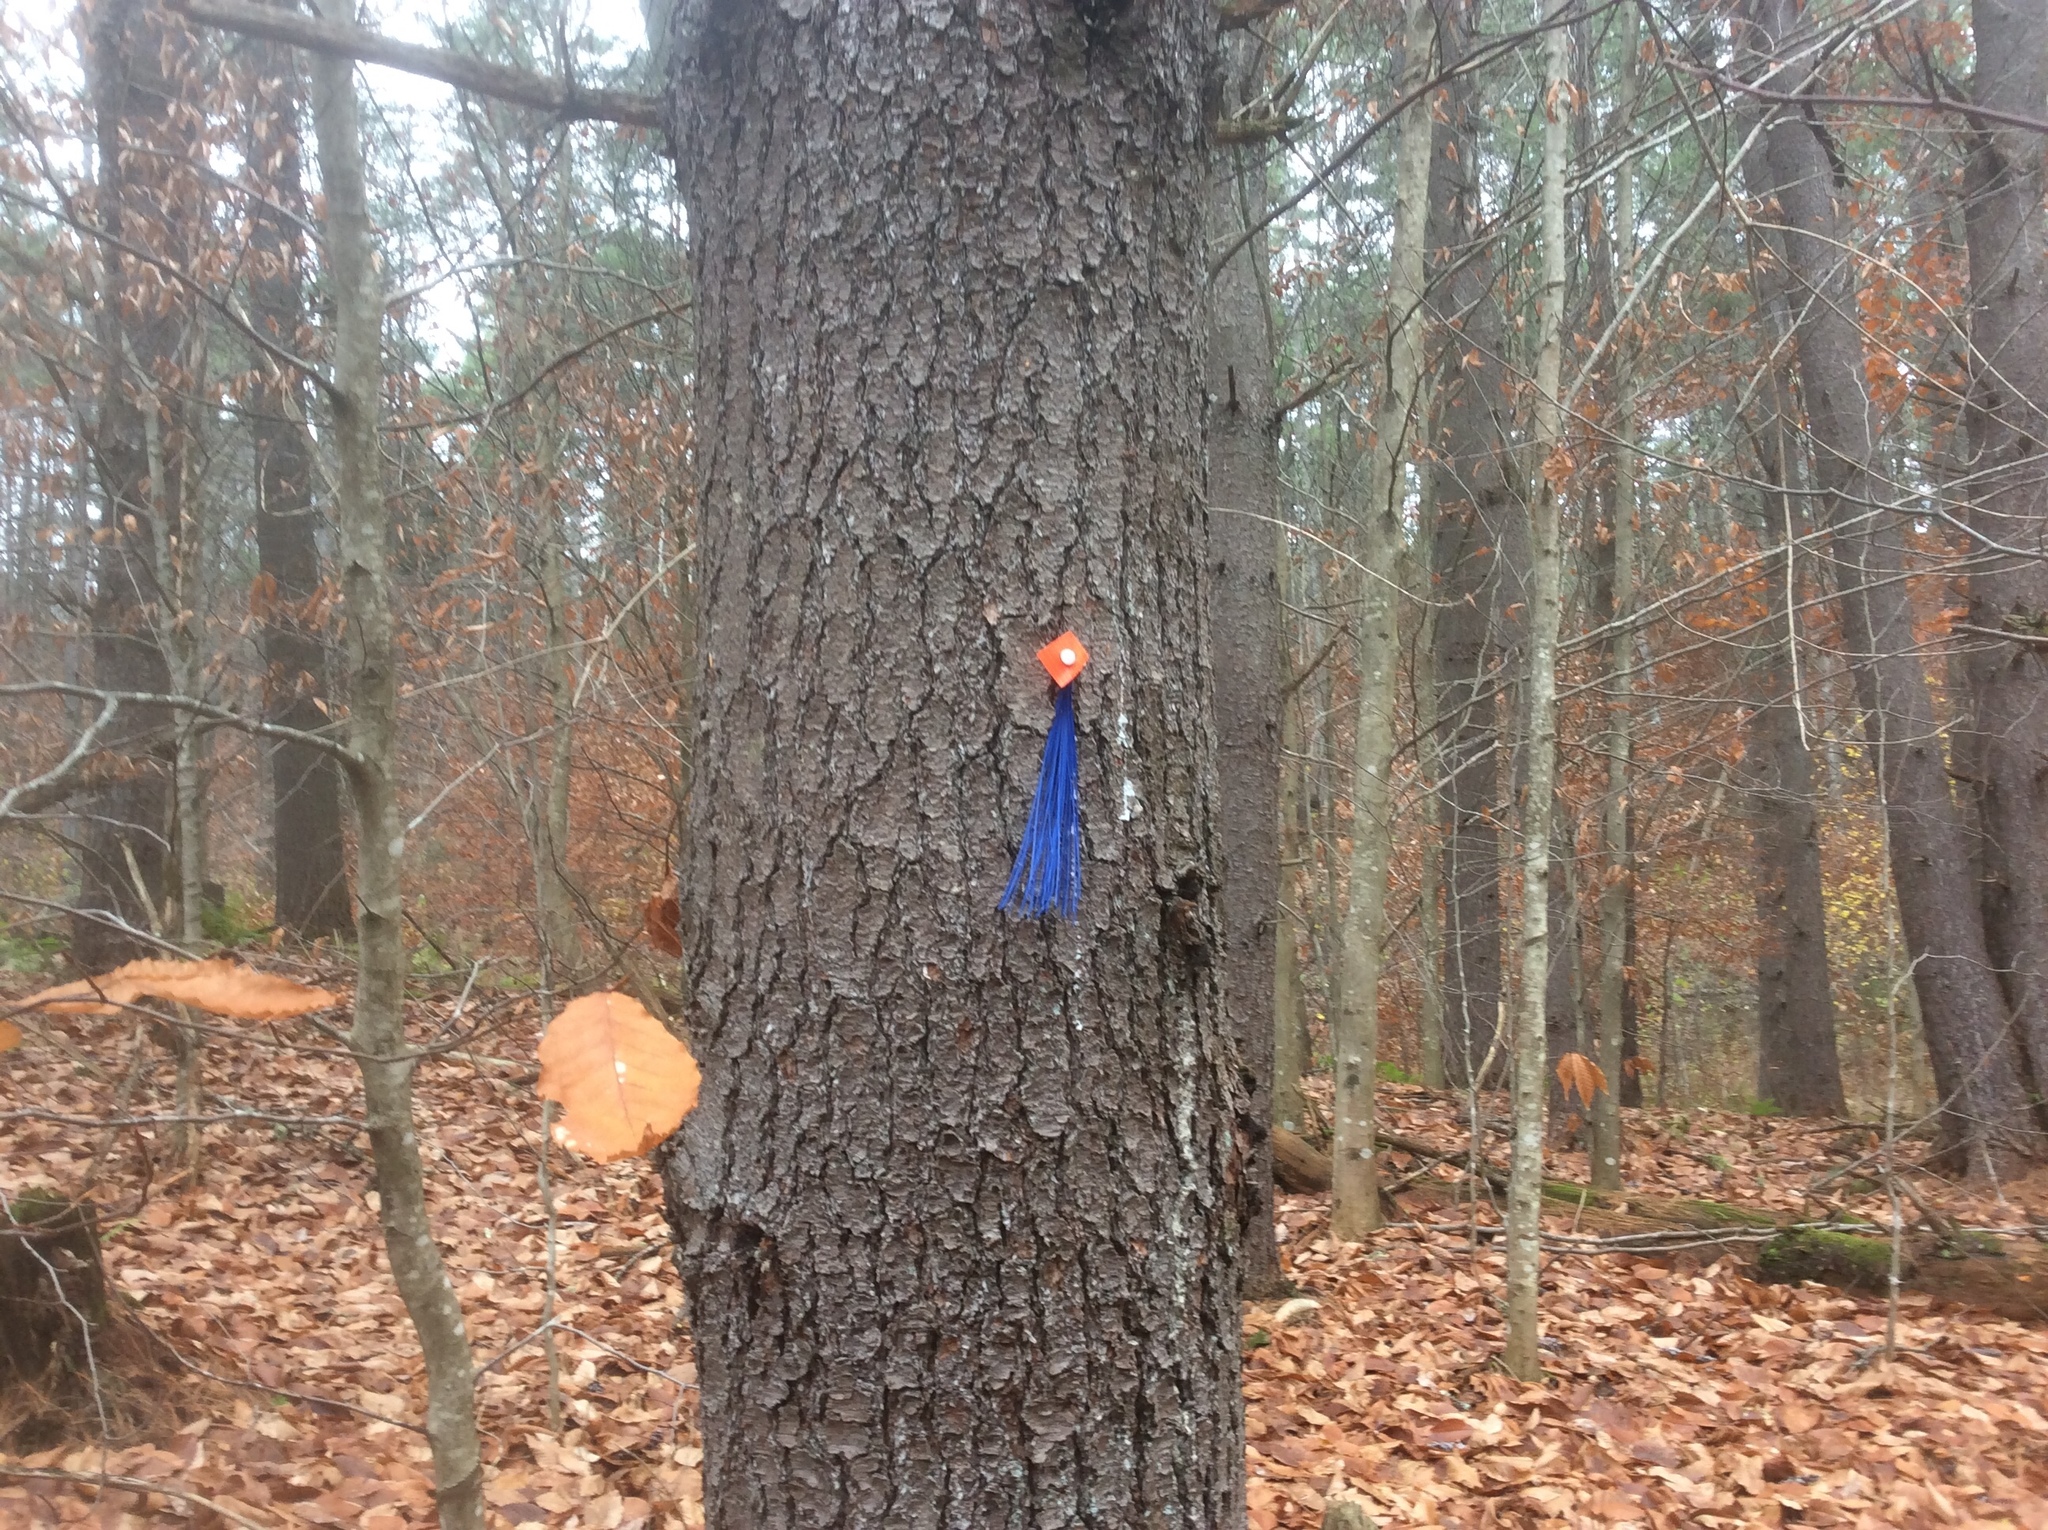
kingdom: Plantae
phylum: Tracheophyta
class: Pinopsida
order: Pinales
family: Pinaceae
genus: Pinus
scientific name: Pinus strobus
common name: Weymouth pine
